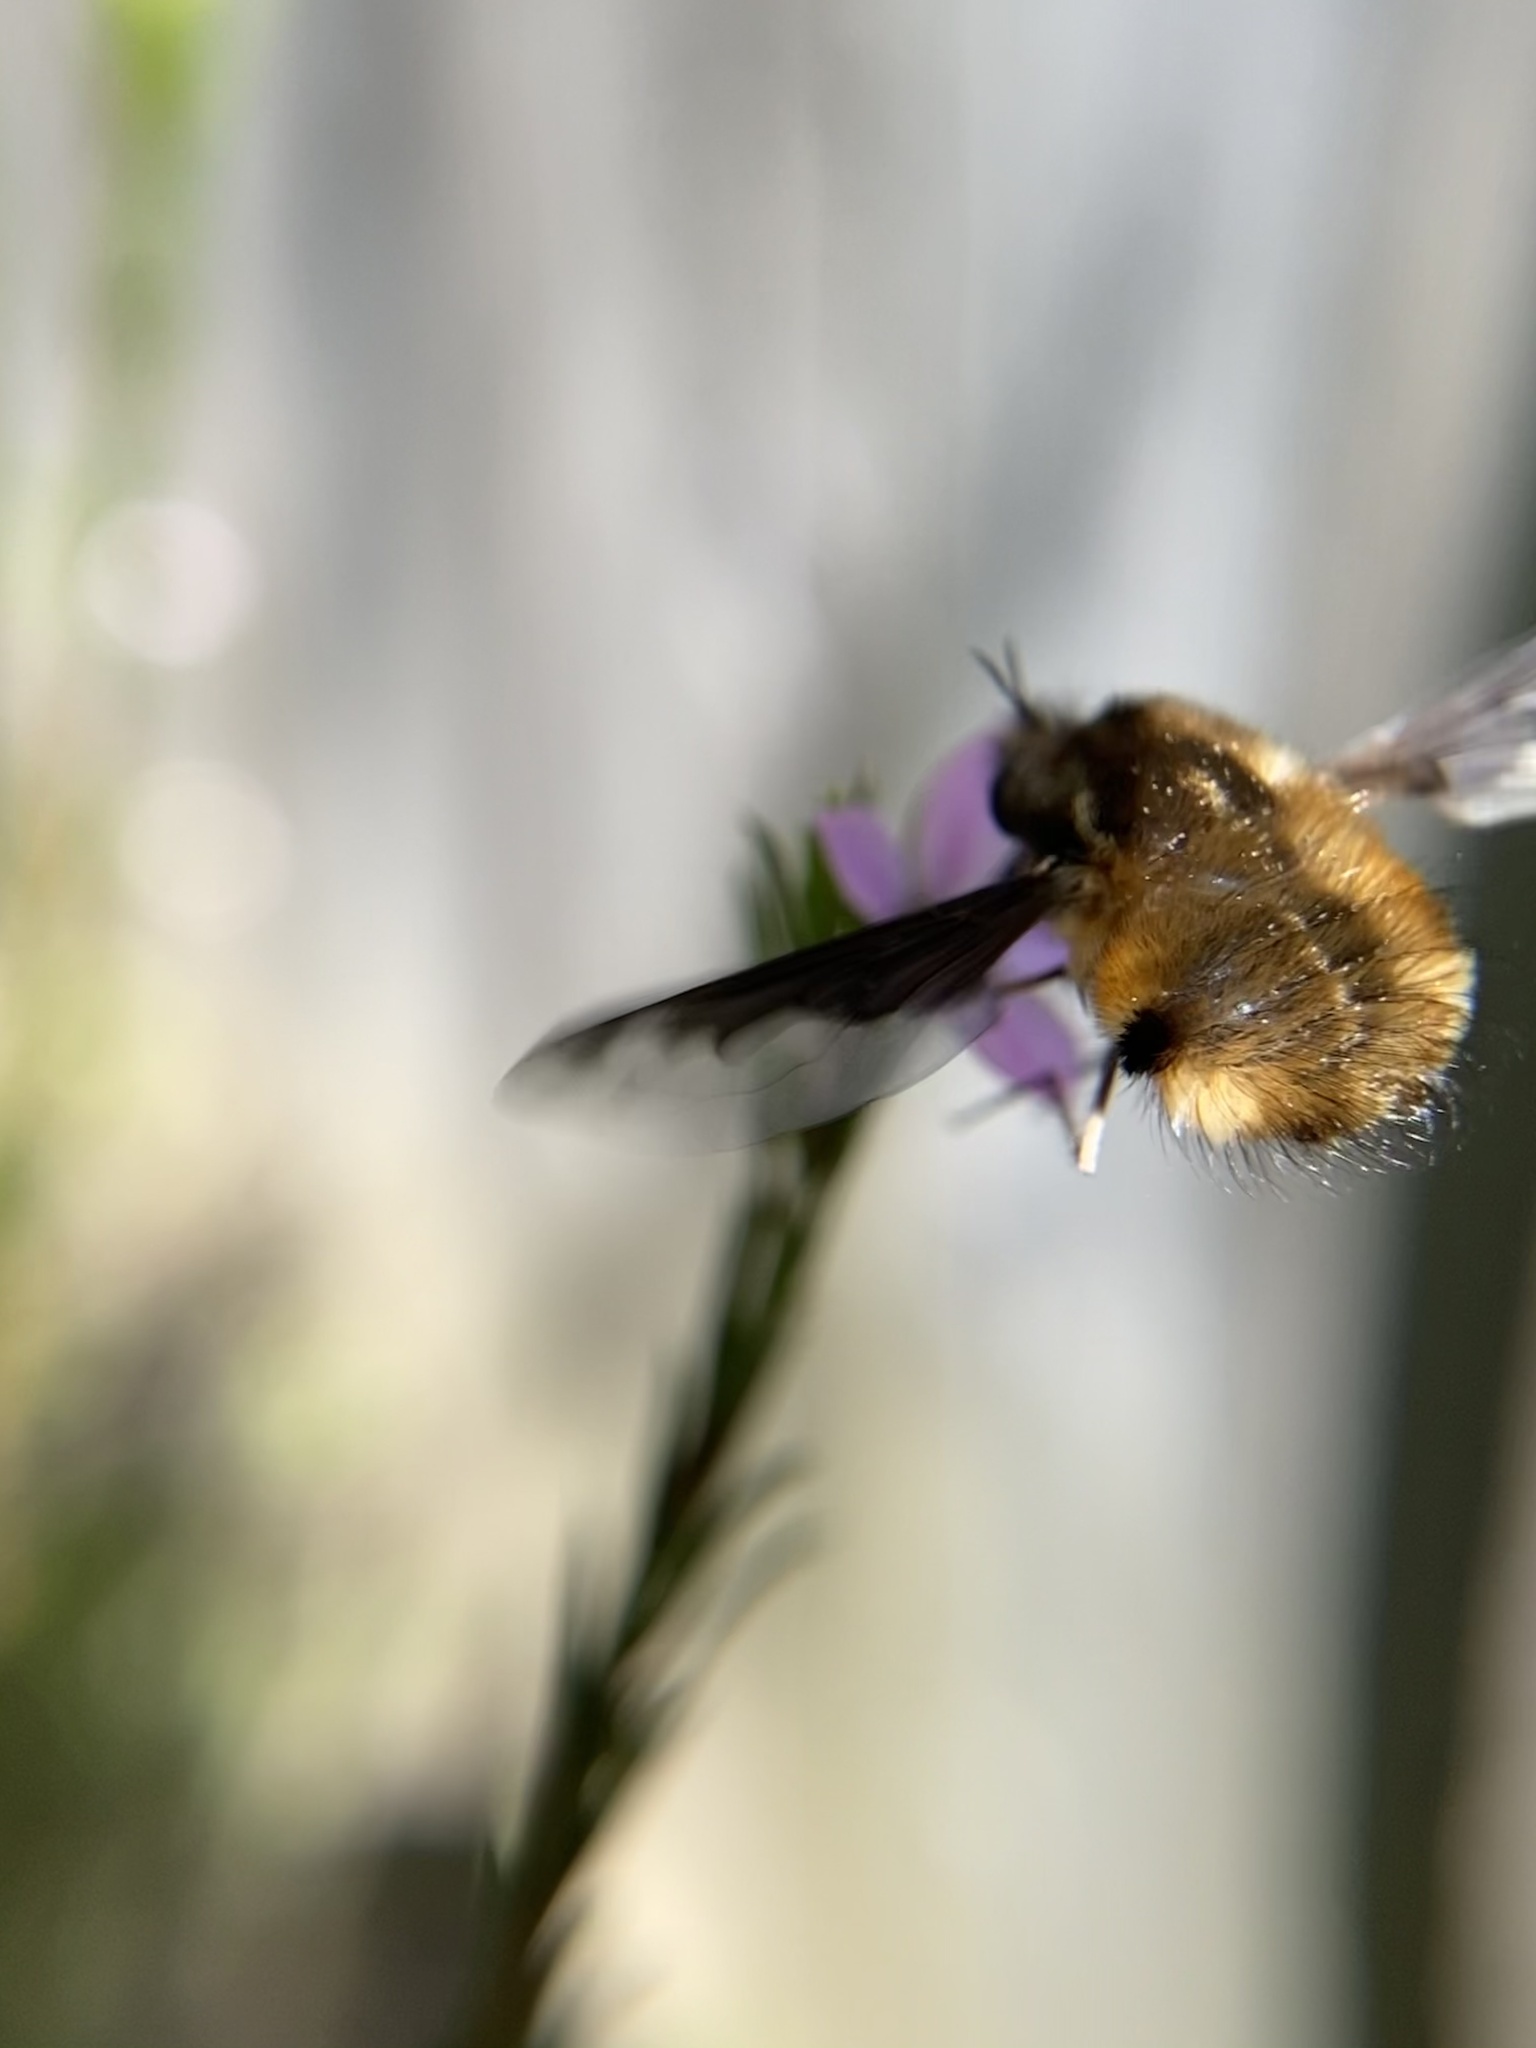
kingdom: Animalia
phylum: Arthropoda
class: Insecta
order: Diptera
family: Bombyliidae
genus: Bombylius
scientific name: Bombylius major
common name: Bee fly
